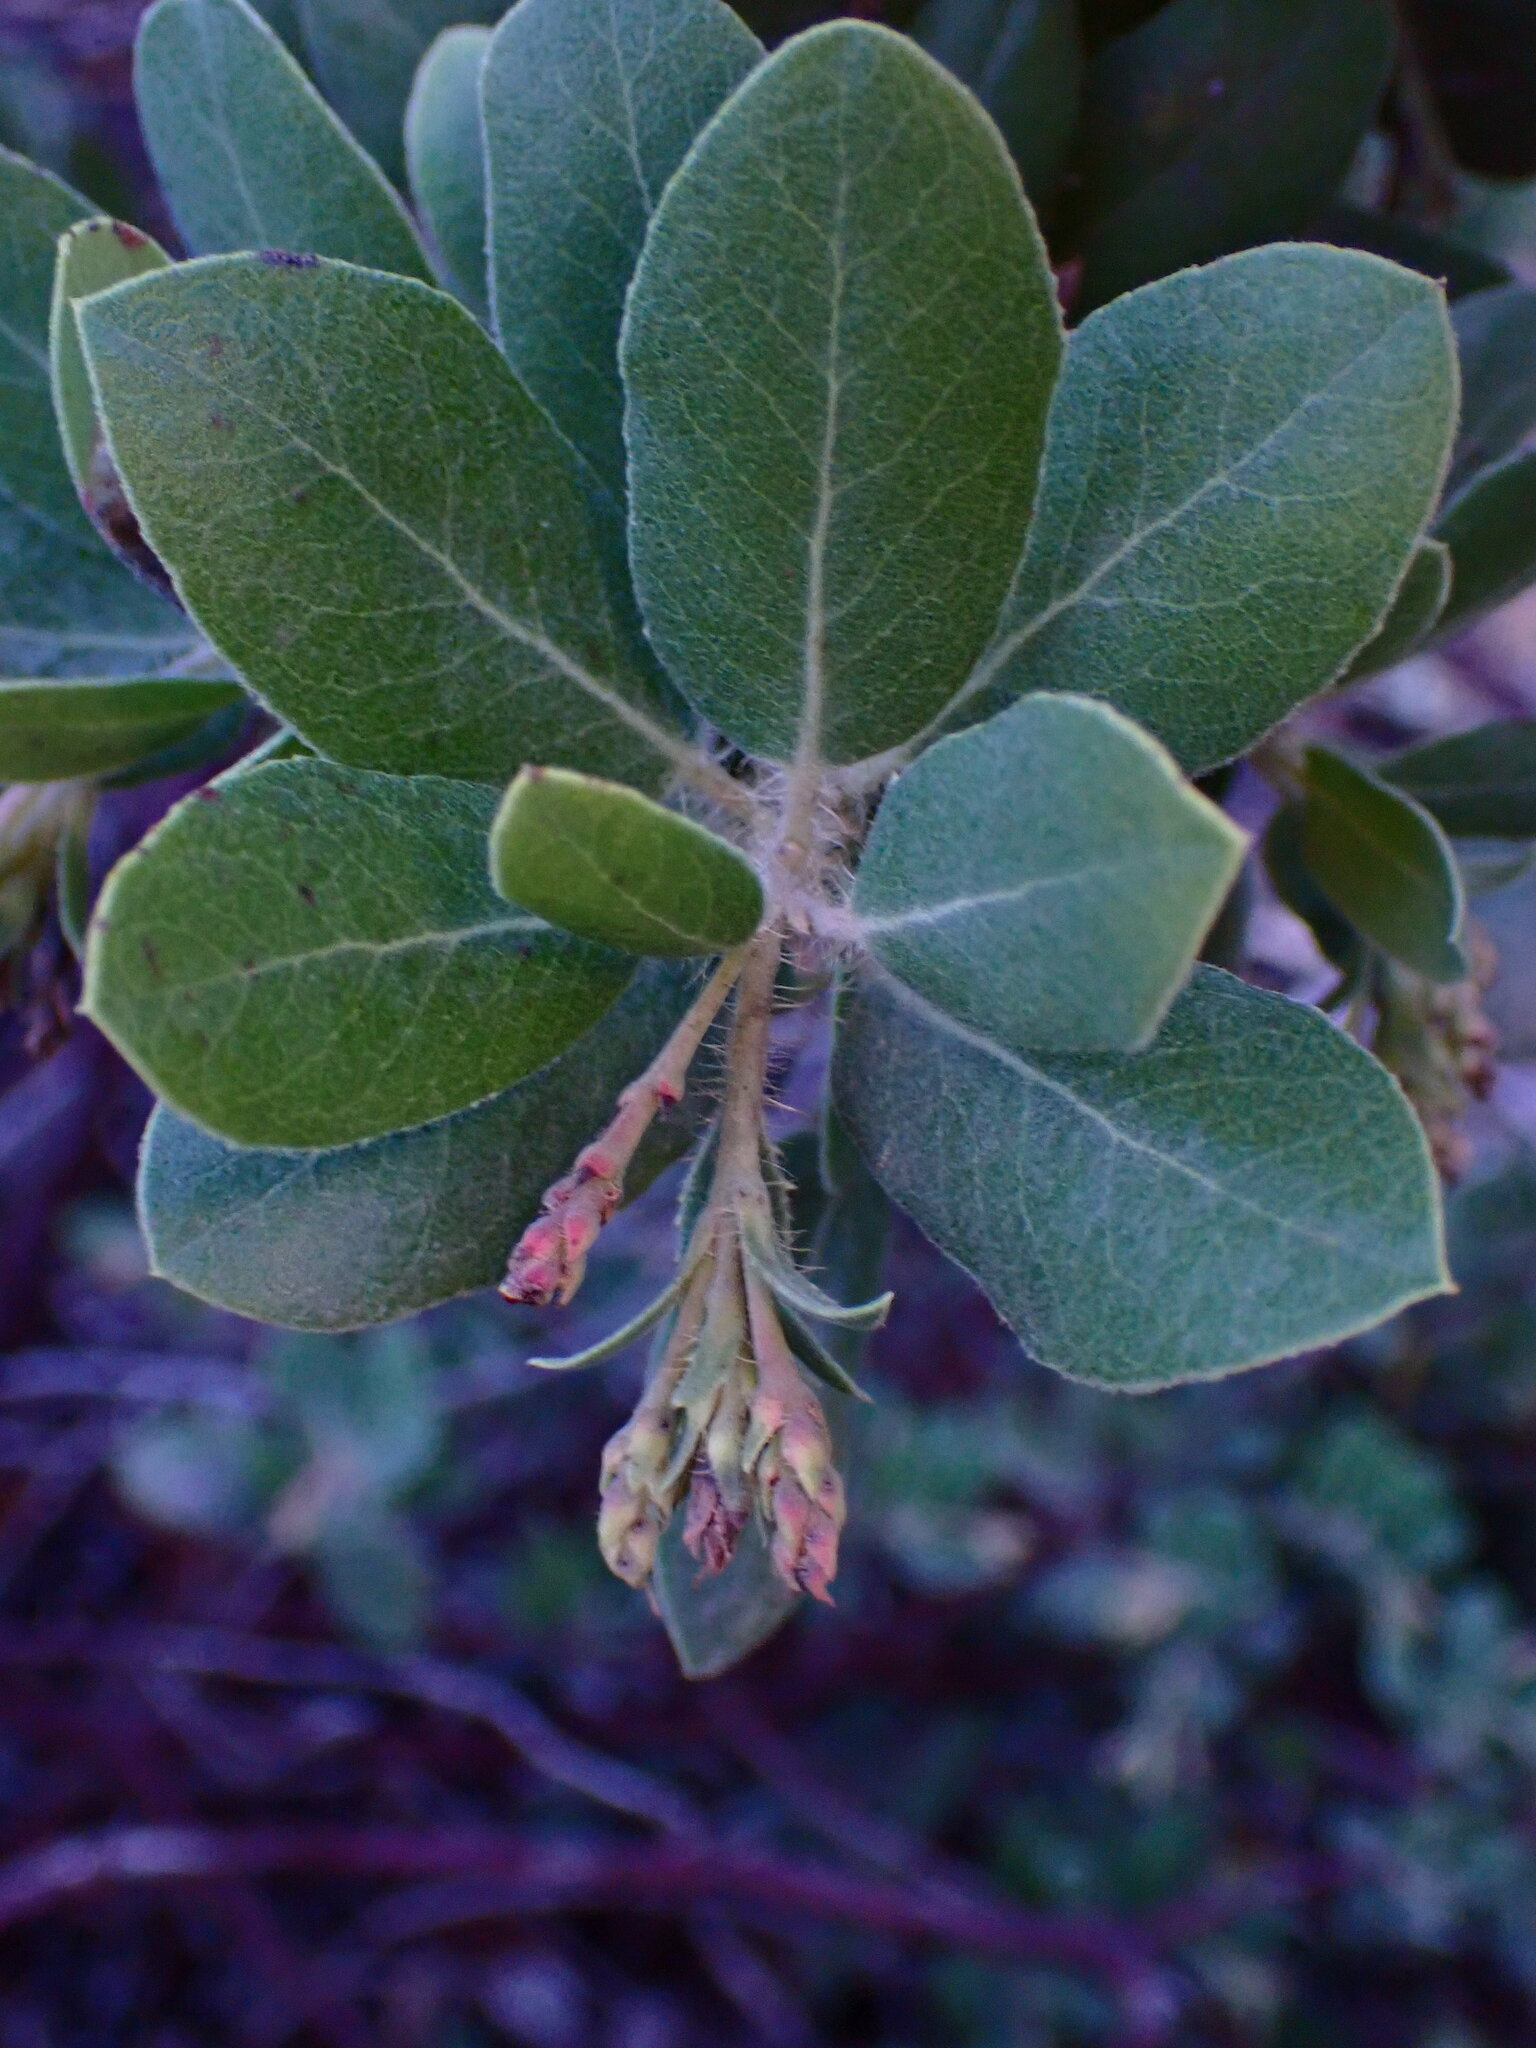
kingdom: Plantae
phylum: Tracheophyta
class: Magnoliopsida
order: Ericales
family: Ericaceae
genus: Arctostaphylos
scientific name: Arctostaphylos crustacea
